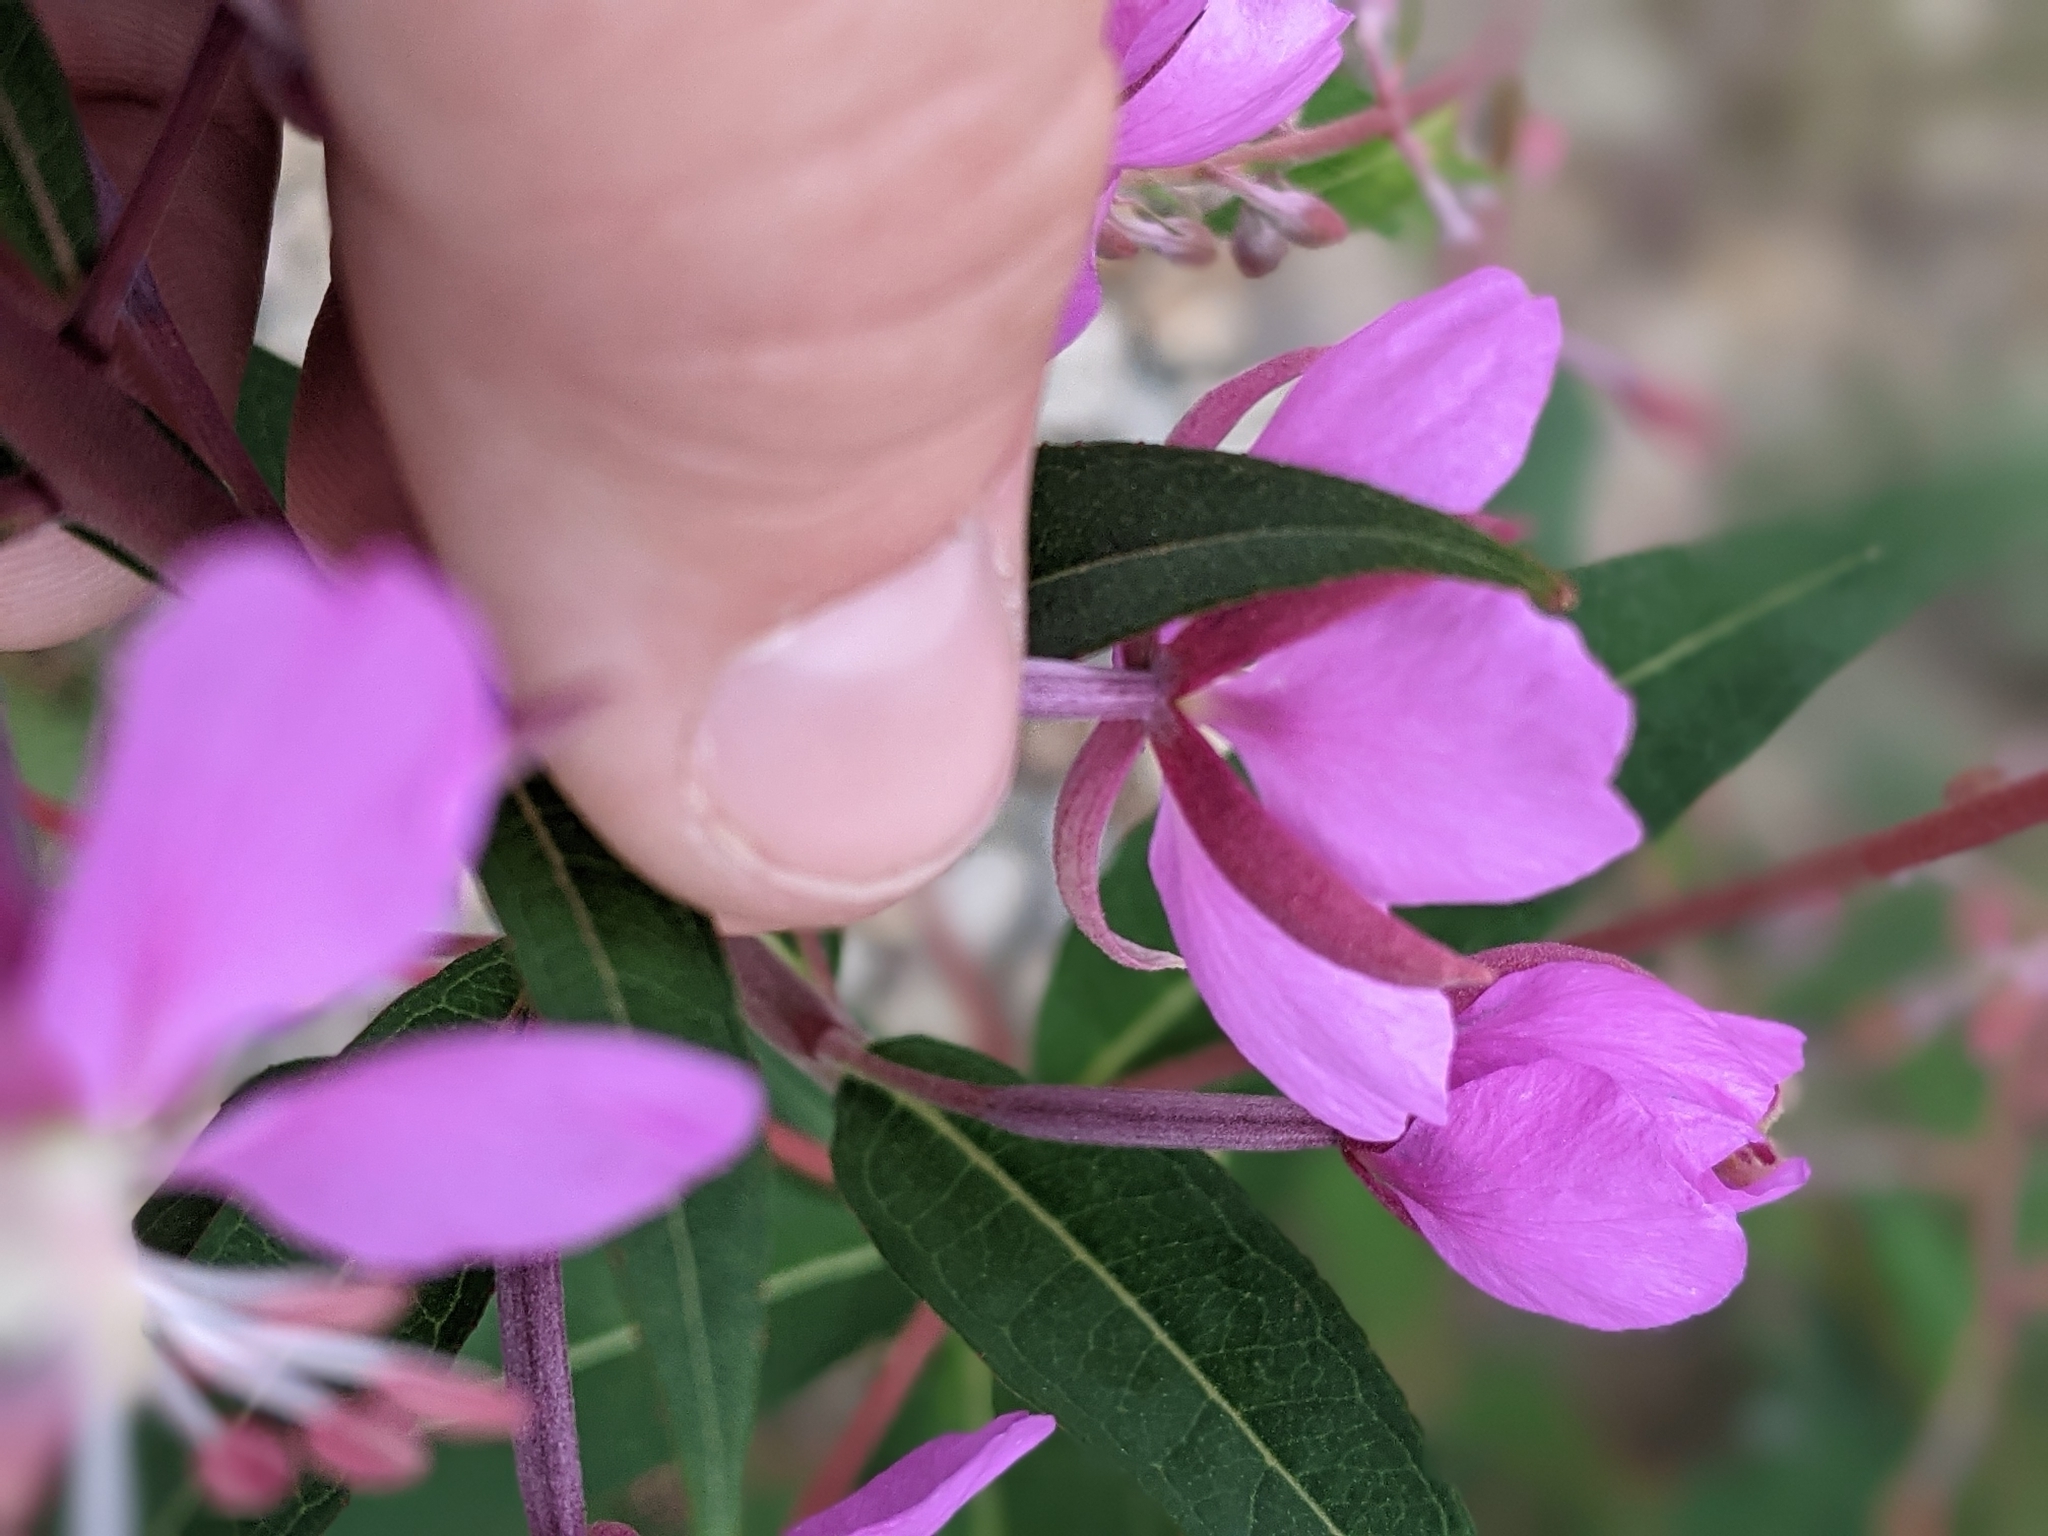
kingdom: Plantae
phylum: Tracheophyta
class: Magnoliopsida
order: Myrtales
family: Onagraceae
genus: Chamaenerion
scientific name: Chamaenerion angustifolium
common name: Fireweed
